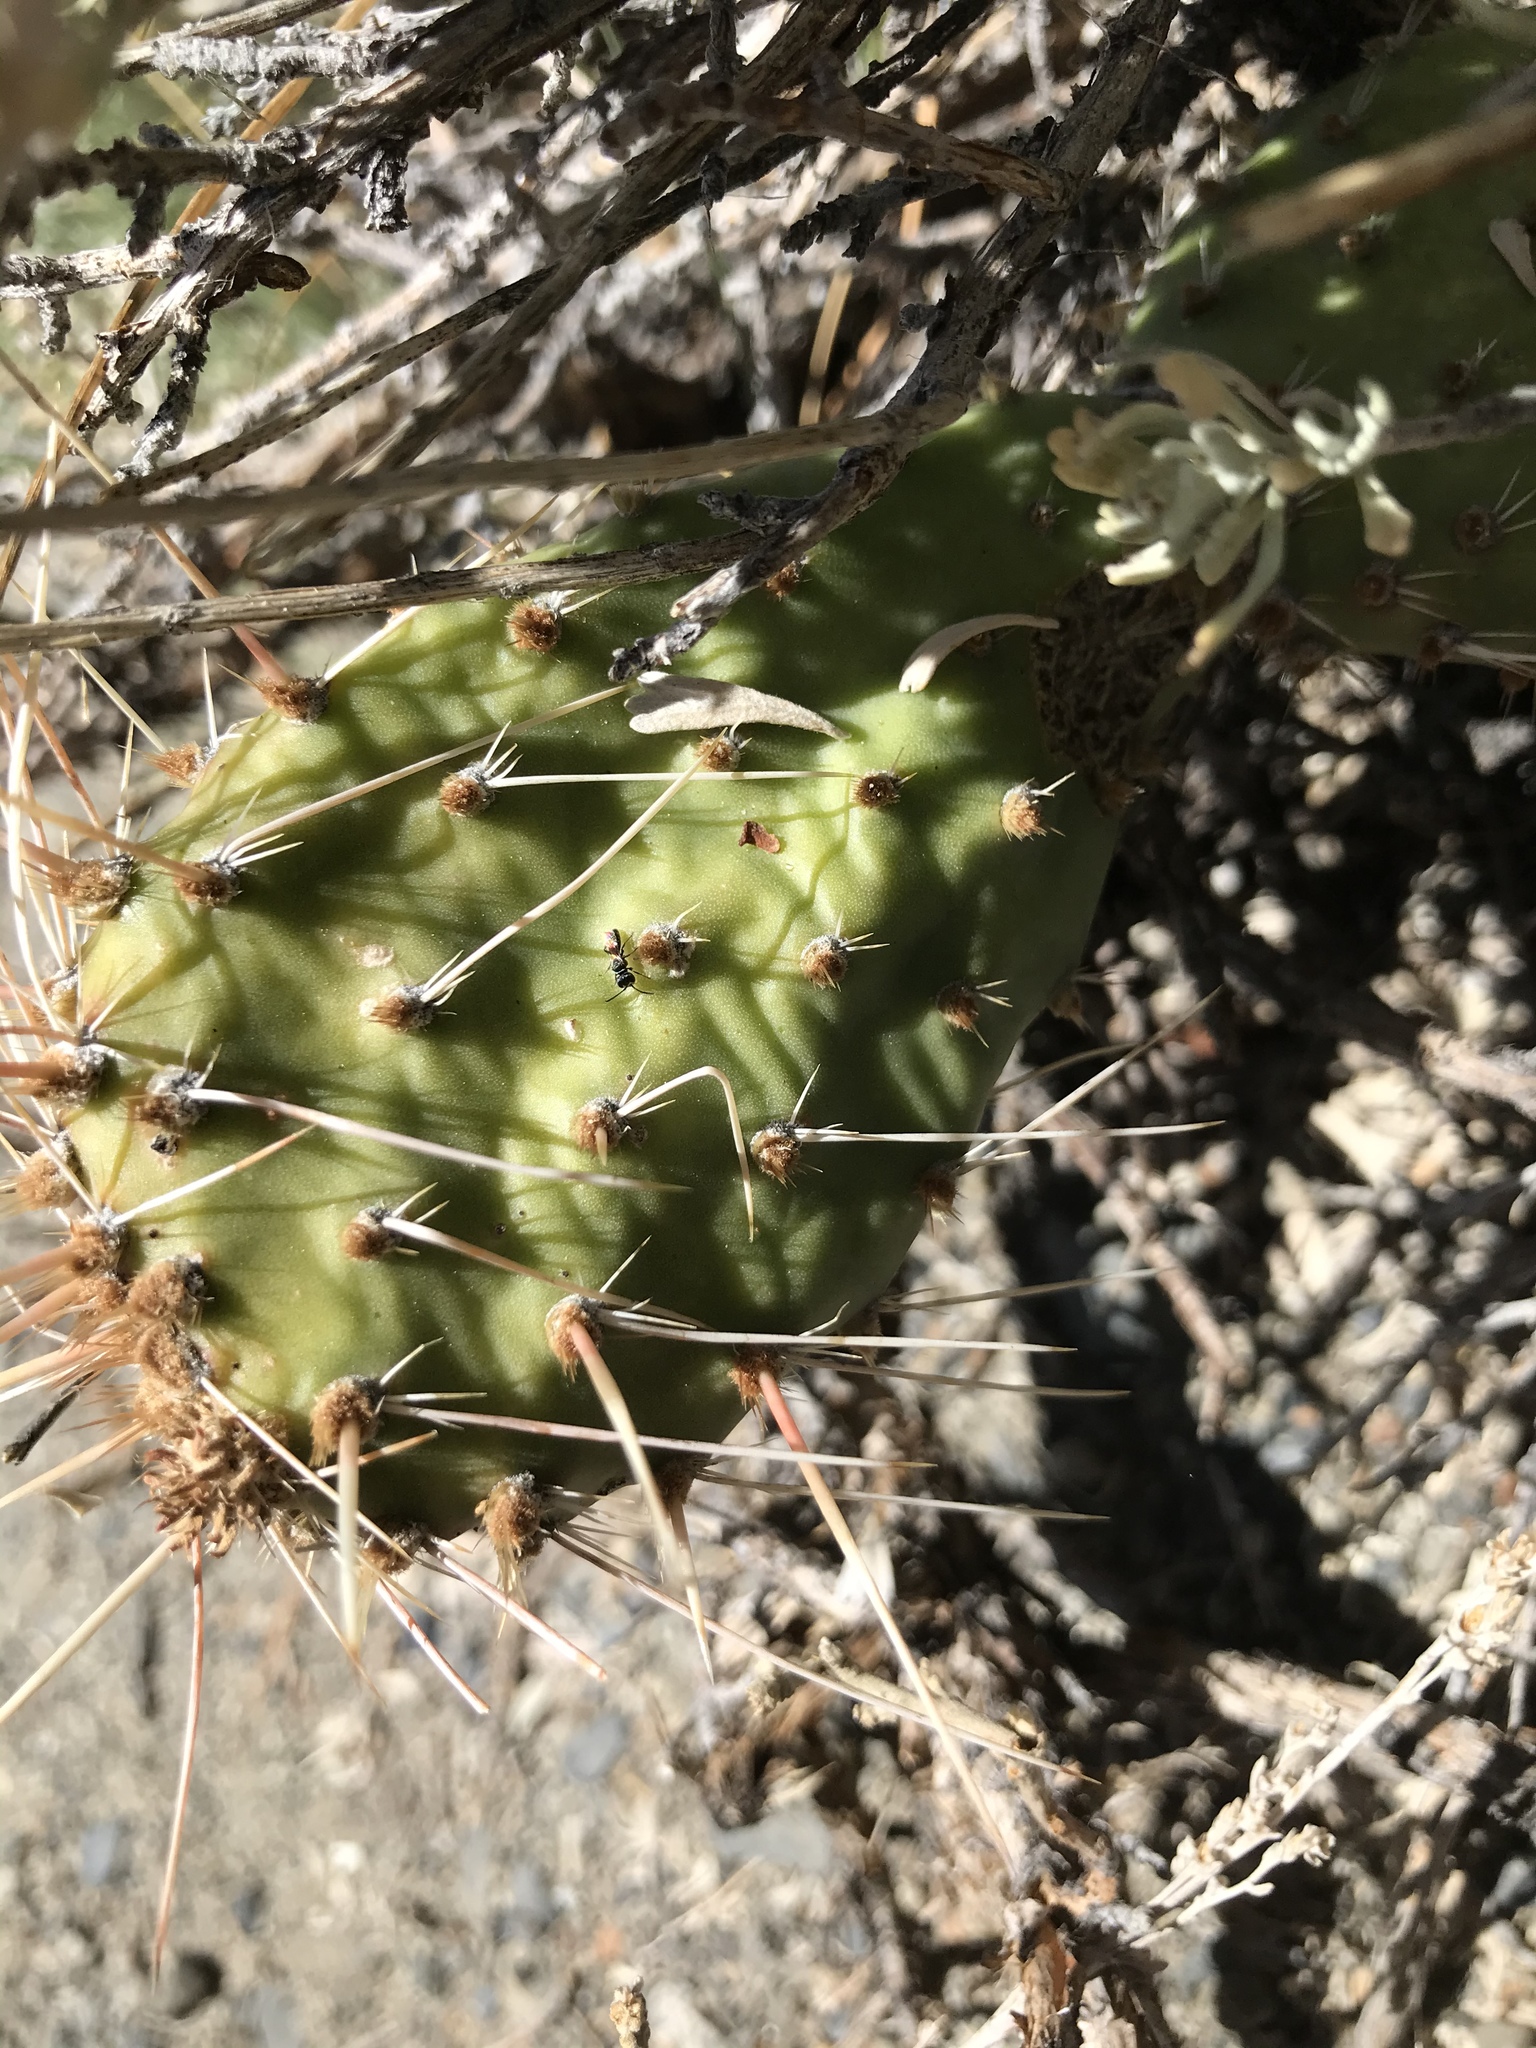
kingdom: Plantae
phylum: Tracheophyta
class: Magnoliopsida
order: Caryophyllales
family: Cactaceae
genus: Opuntia
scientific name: Opuntia polyacantha
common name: Plains prickly-pear
